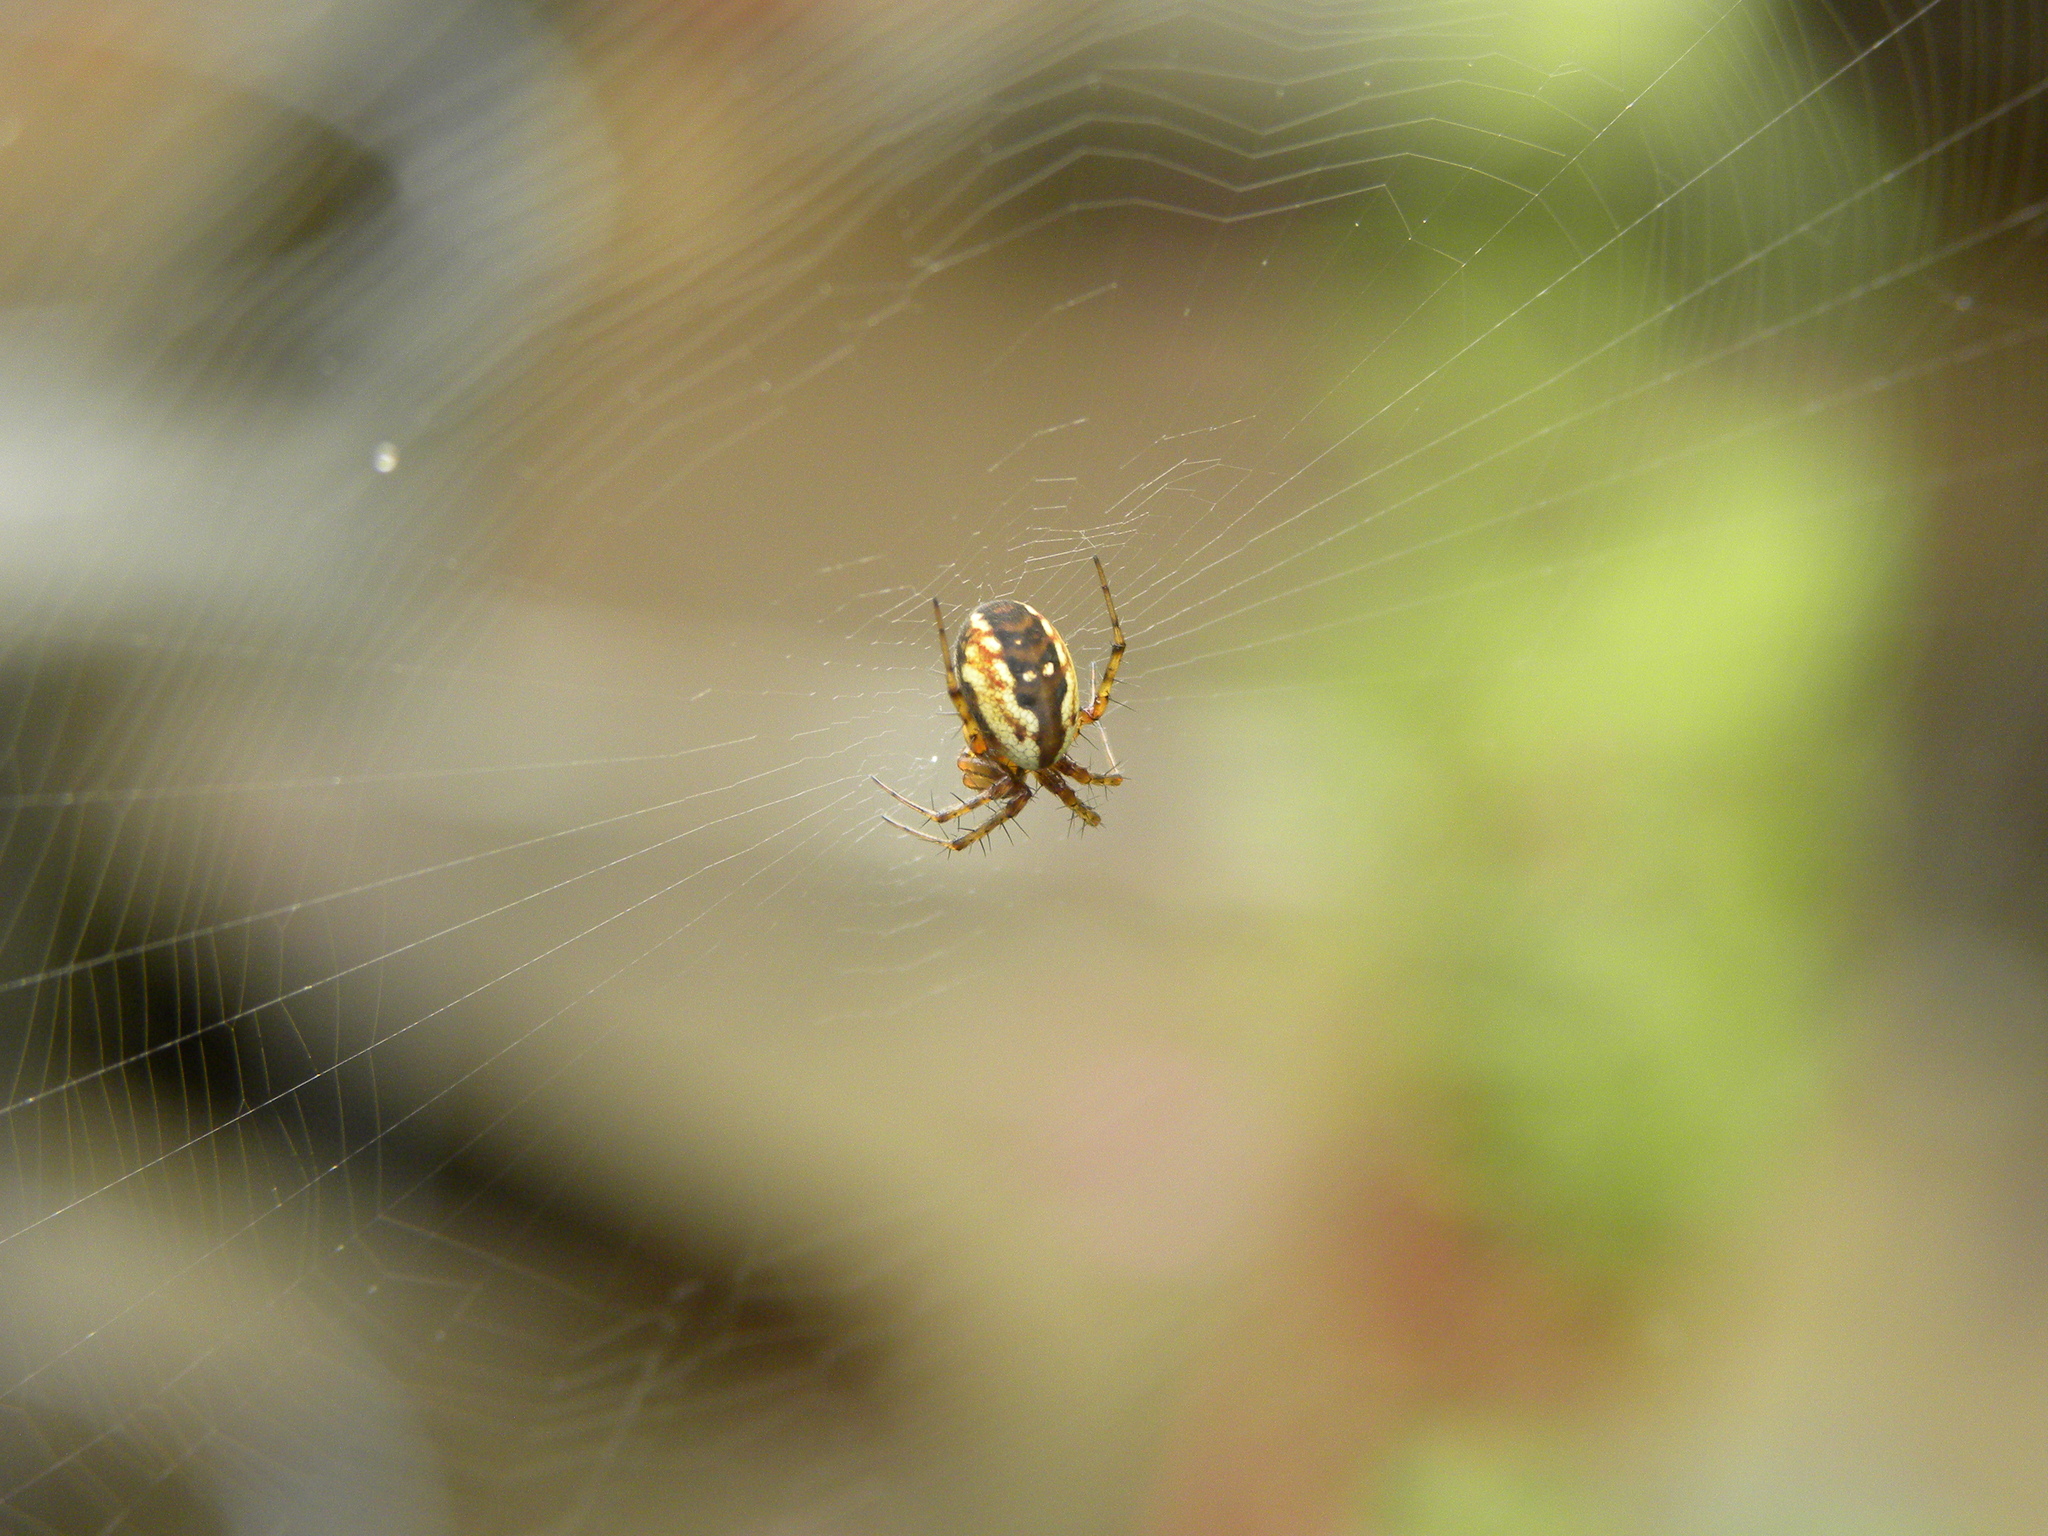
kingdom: Animalia
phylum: Arthropoda
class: Arachnida
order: Araneae
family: Araneidae
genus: Mangora
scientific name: Mangora placida
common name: Tuft-legged orbweaver
